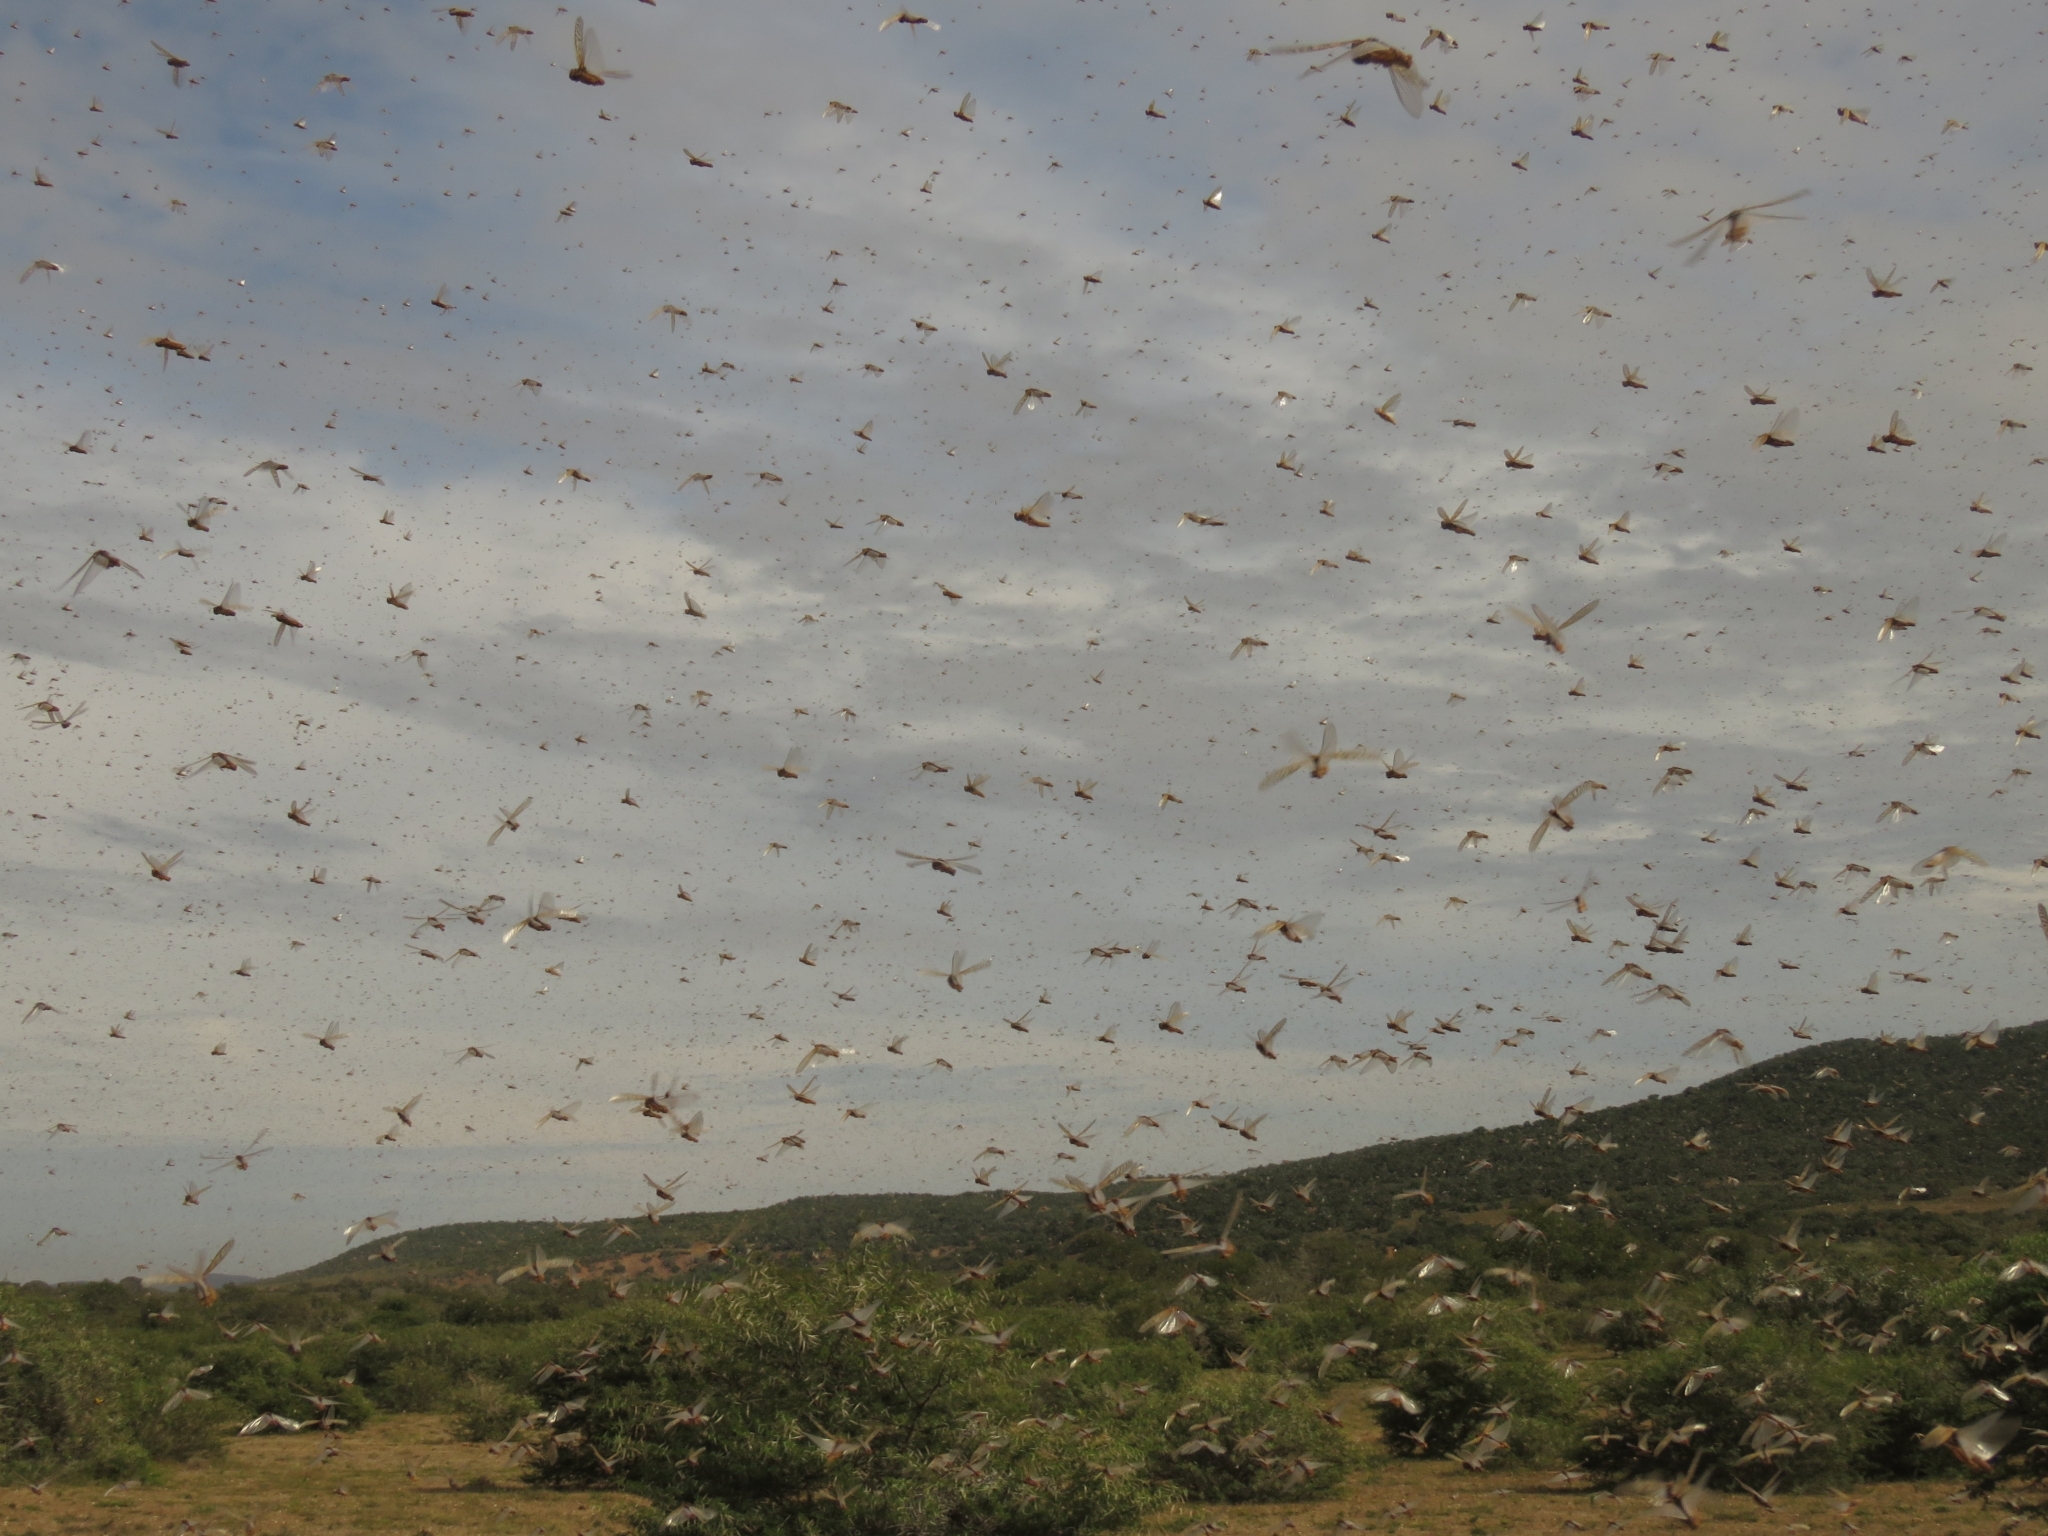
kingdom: Animalia
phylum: Arthropoda
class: Insecta
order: Orthoptera
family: Acrididae
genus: Locustana
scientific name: Locustana pardalina
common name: Brown locust
